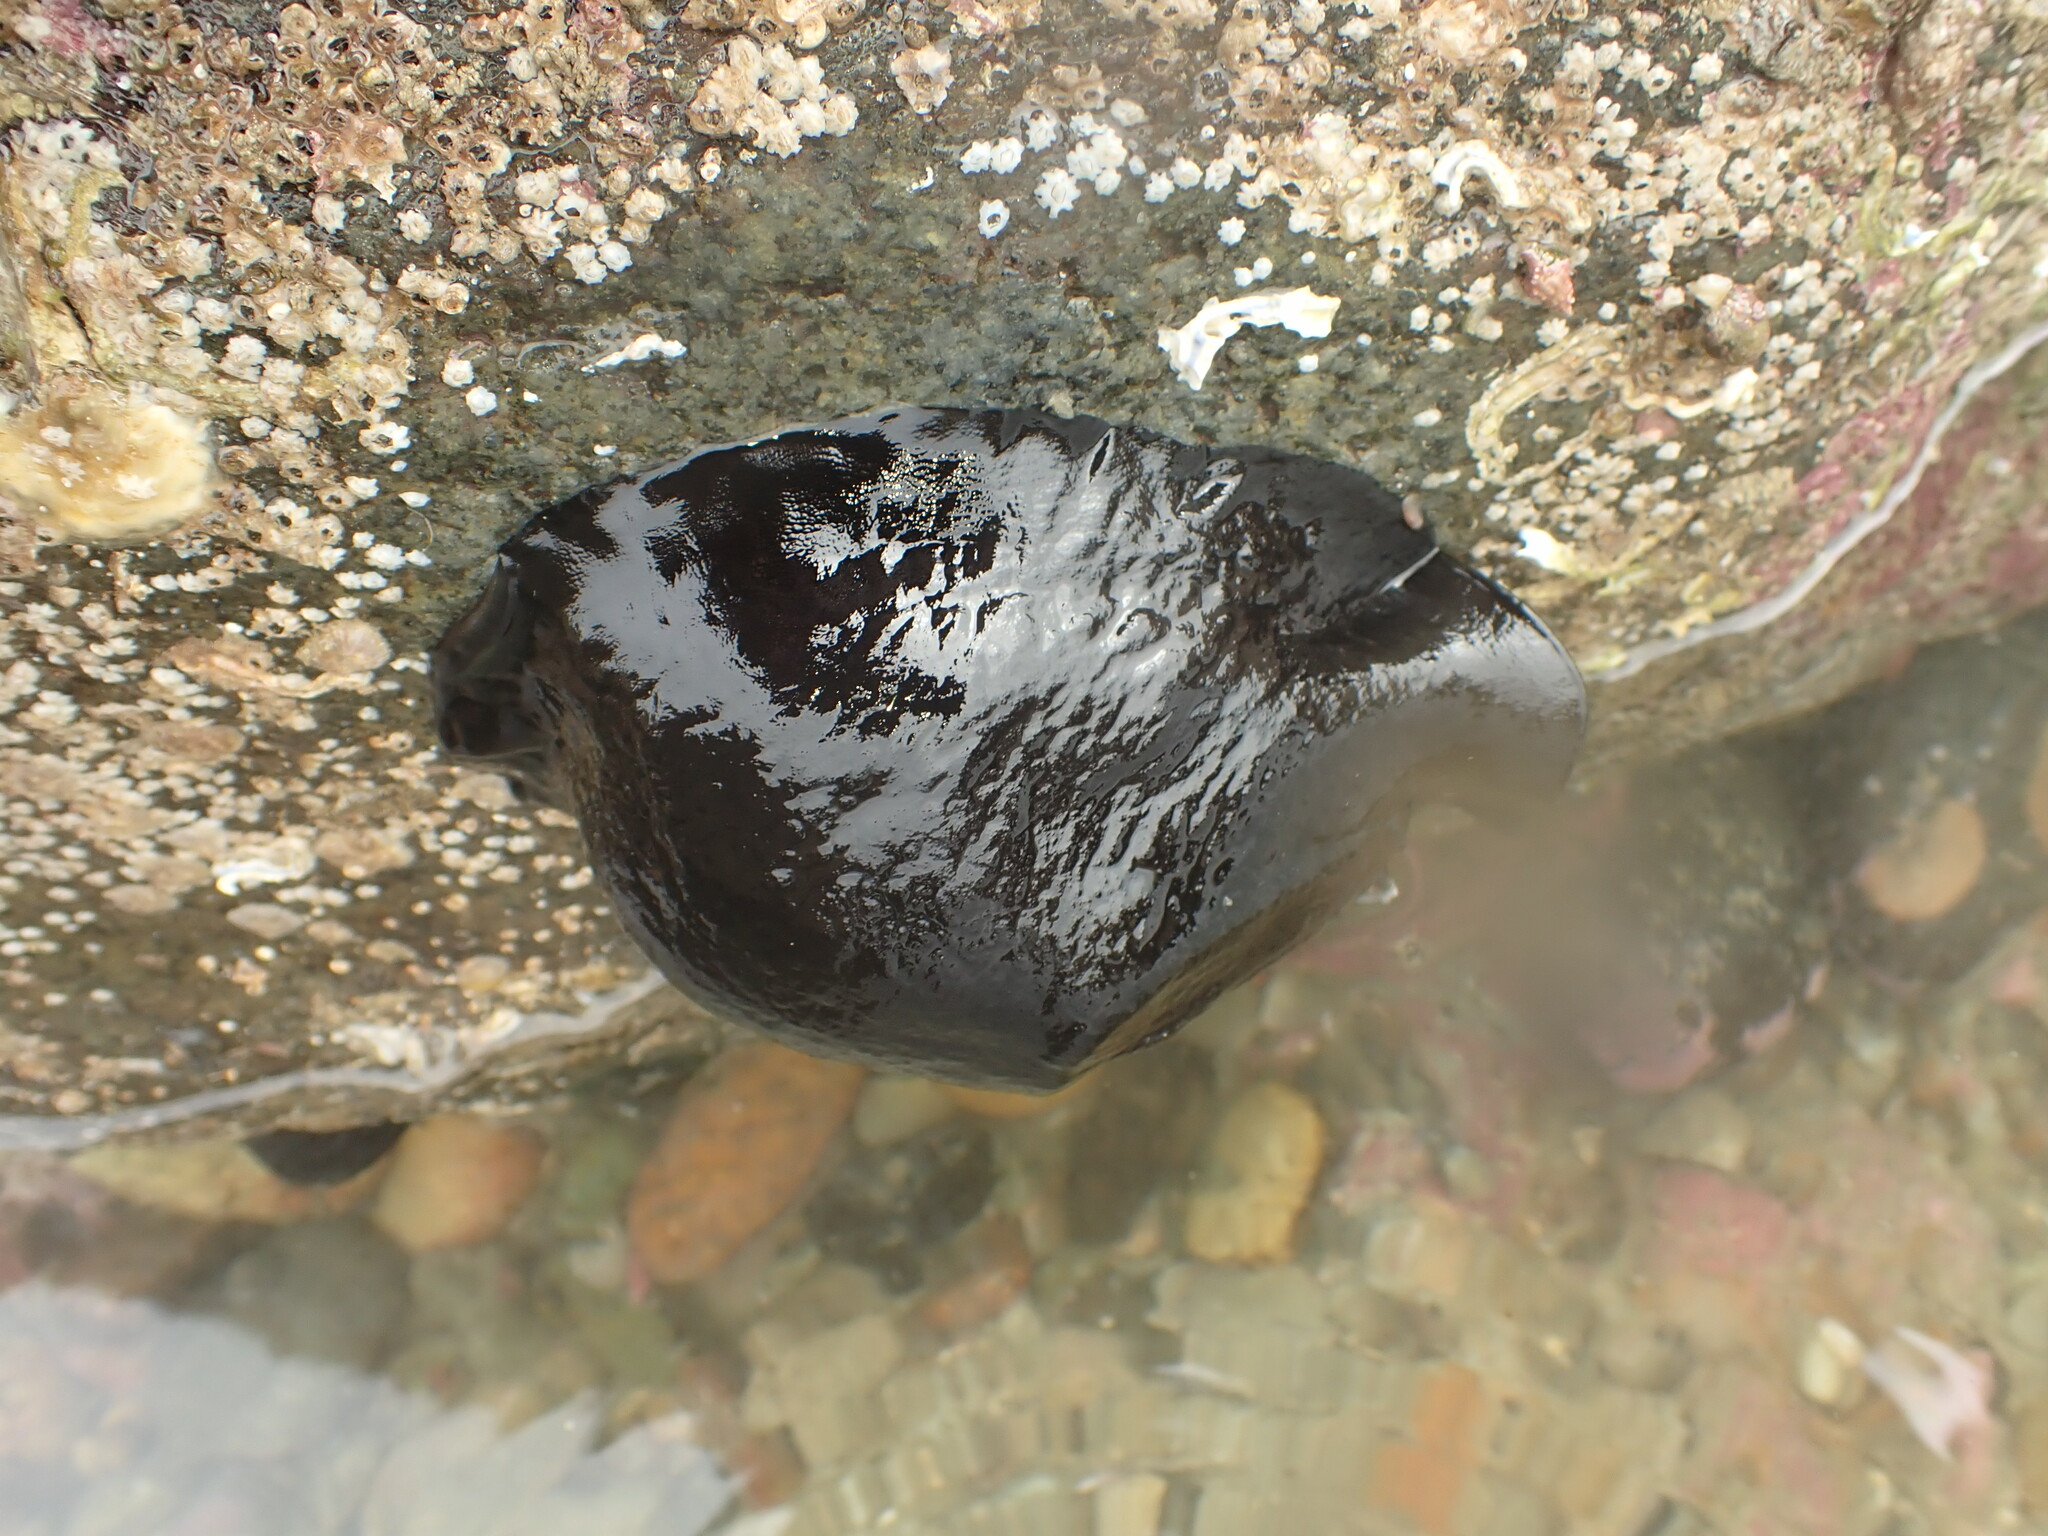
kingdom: Animalia
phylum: Mollusca
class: Gastropoda
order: Lepetellida
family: Fissurellidae
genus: Scutus
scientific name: Scutus breviculus
